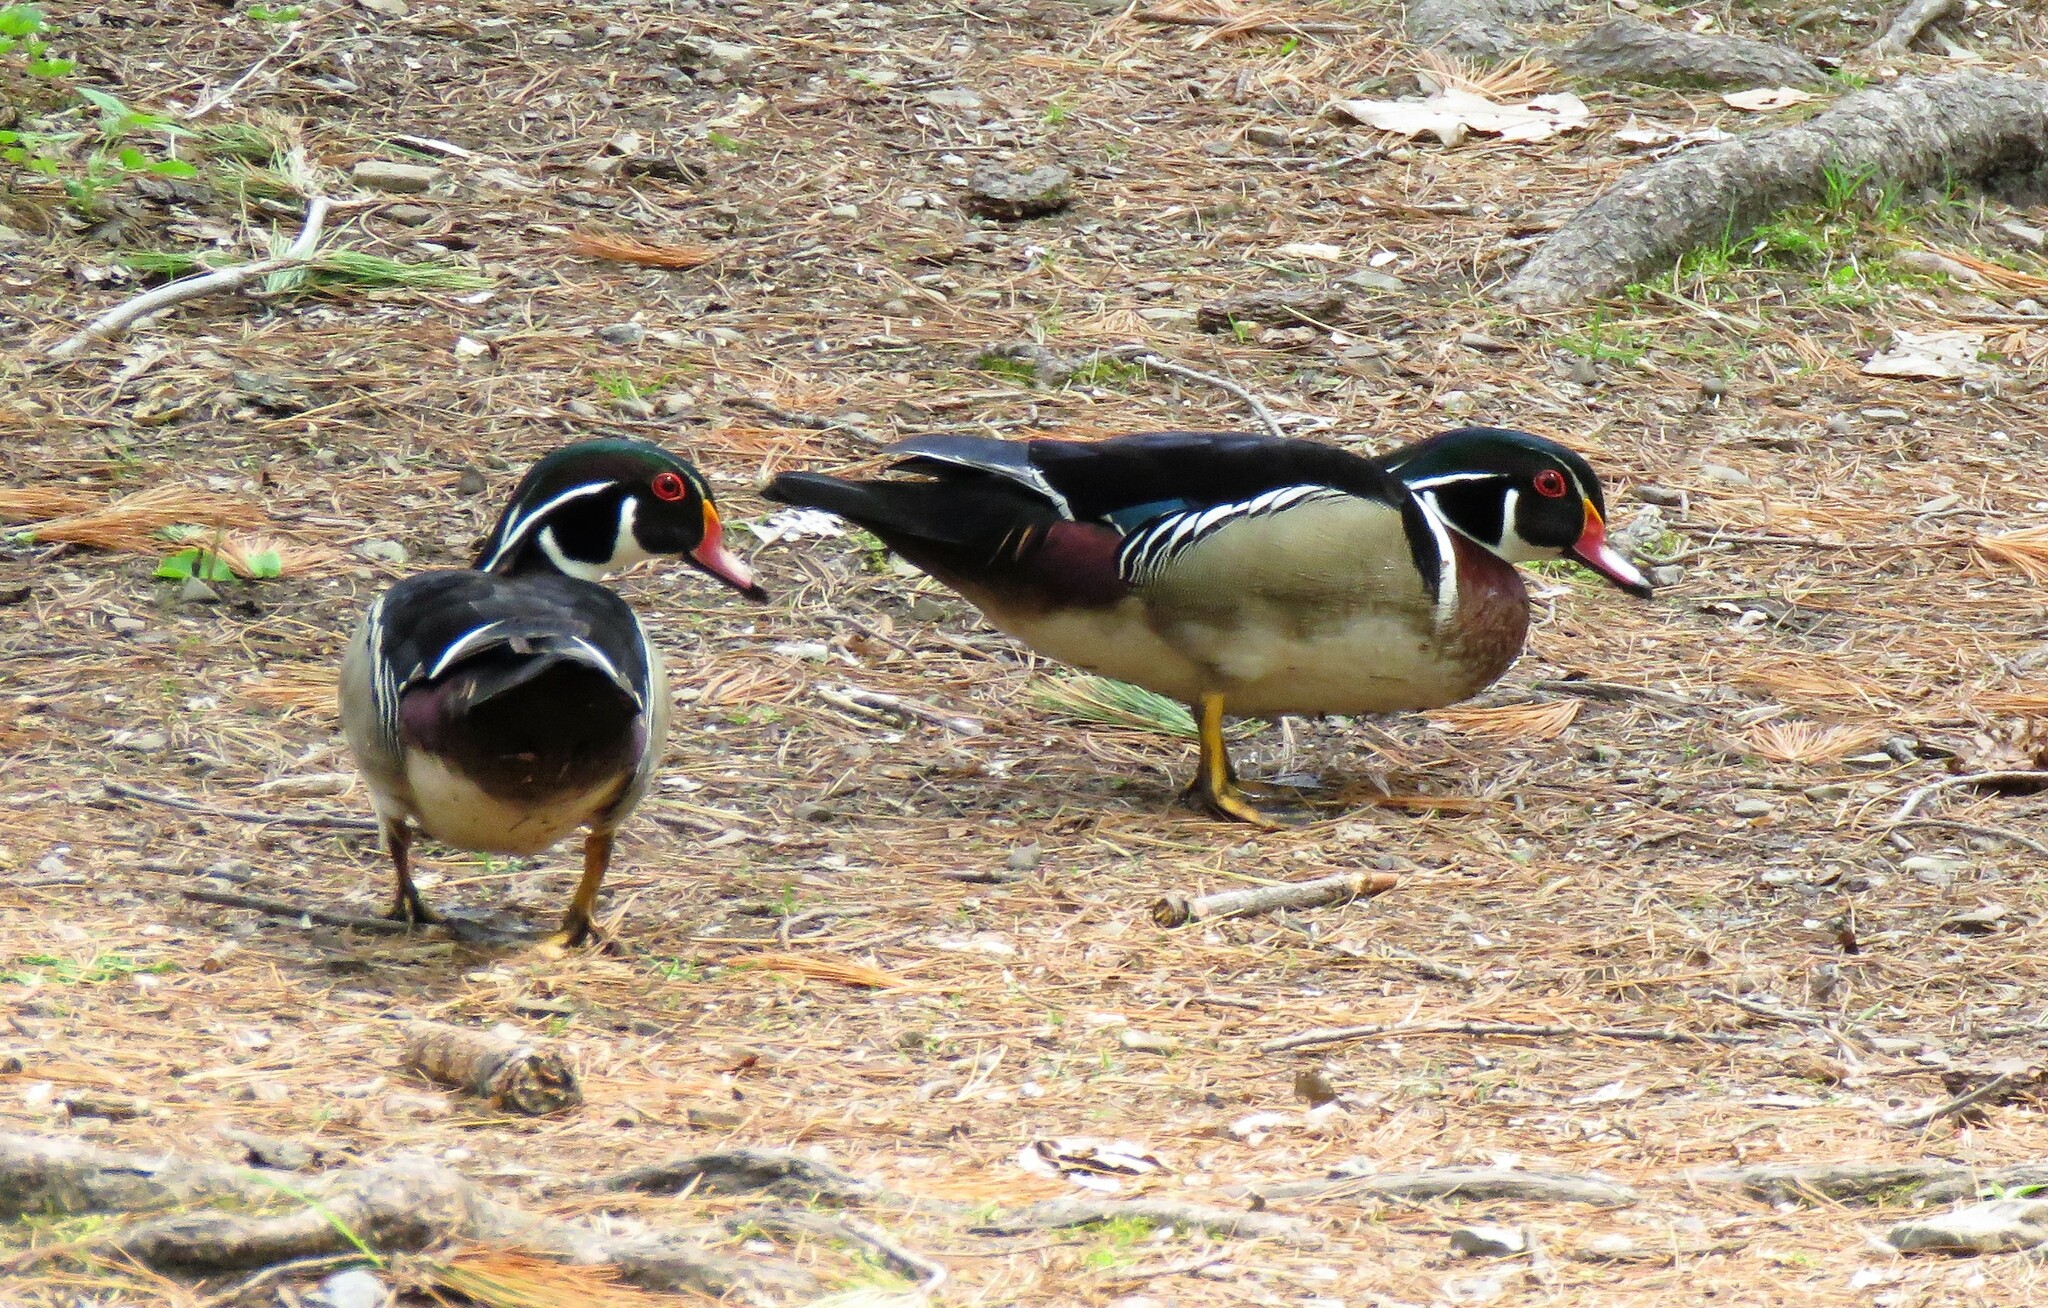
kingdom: Animalia
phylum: Chordata
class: Aves
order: Anseriformes
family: Anatidae
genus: Aix
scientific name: Aix sponsa
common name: Wood duck
